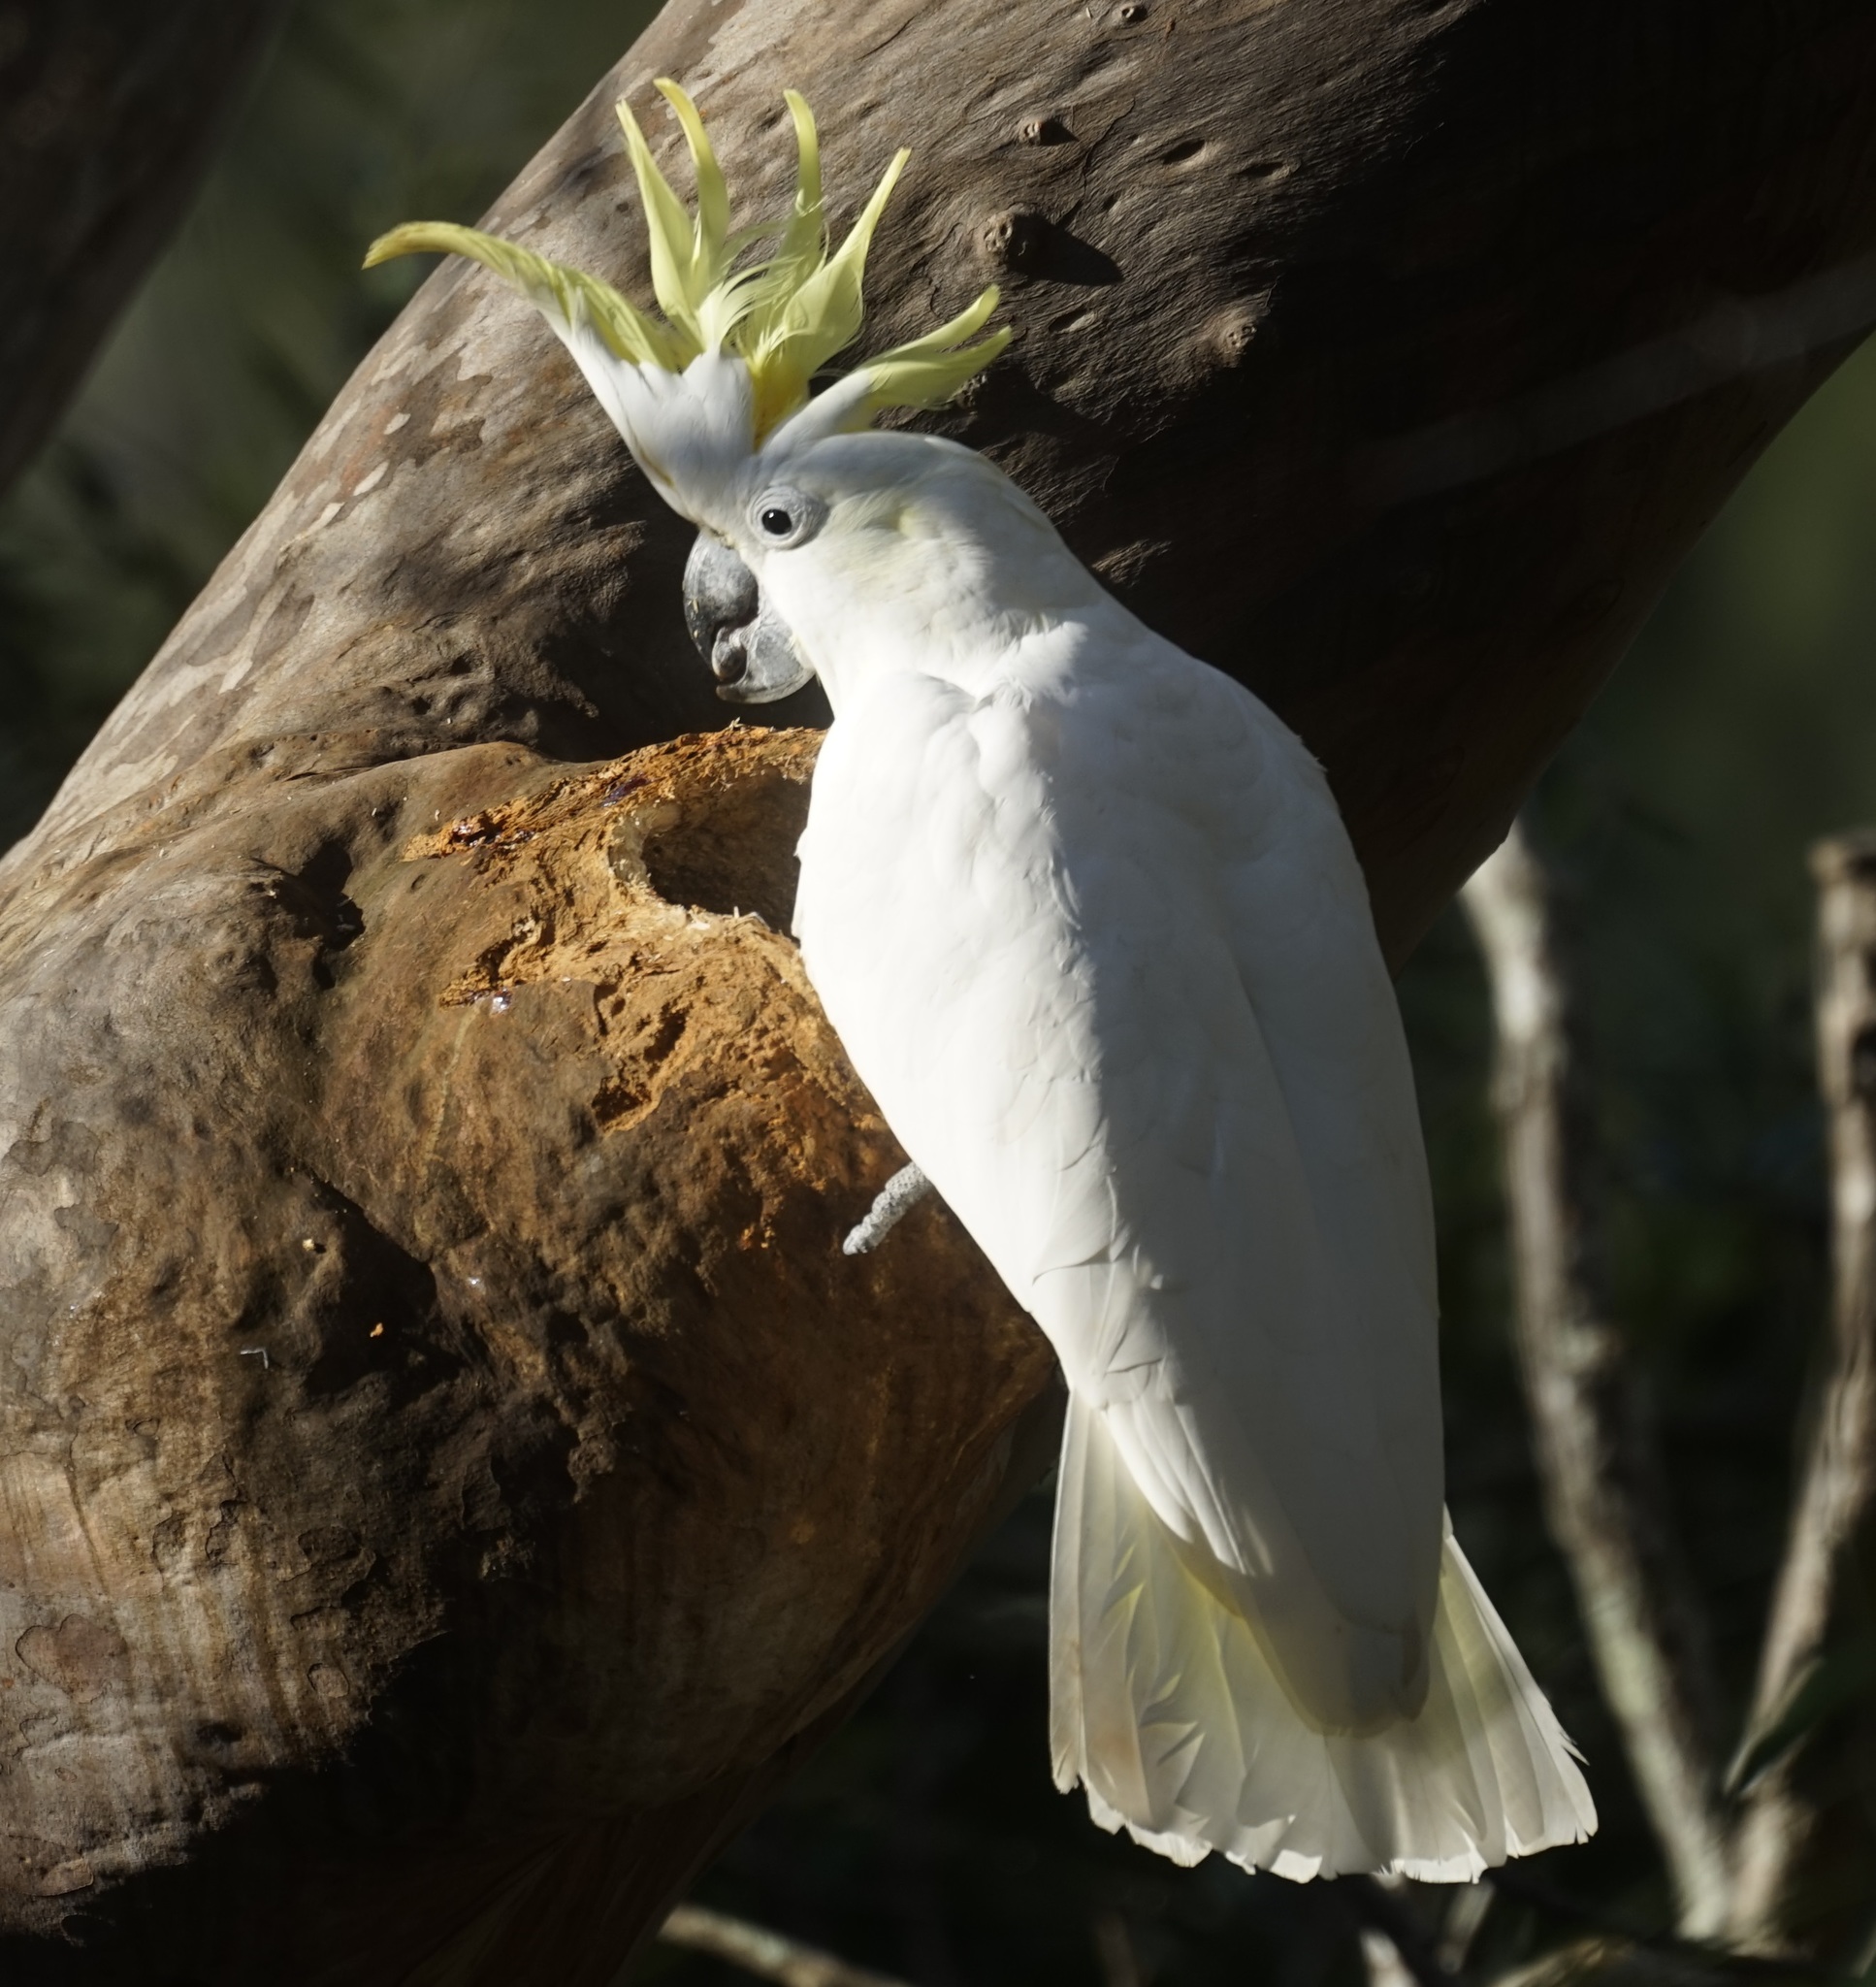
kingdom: Animalia
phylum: Chordata
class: Aves
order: Psittaciformes
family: Psittacidae
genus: Cacatua
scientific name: Cacatua galerita
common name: Sulphur-crested cockatoo
